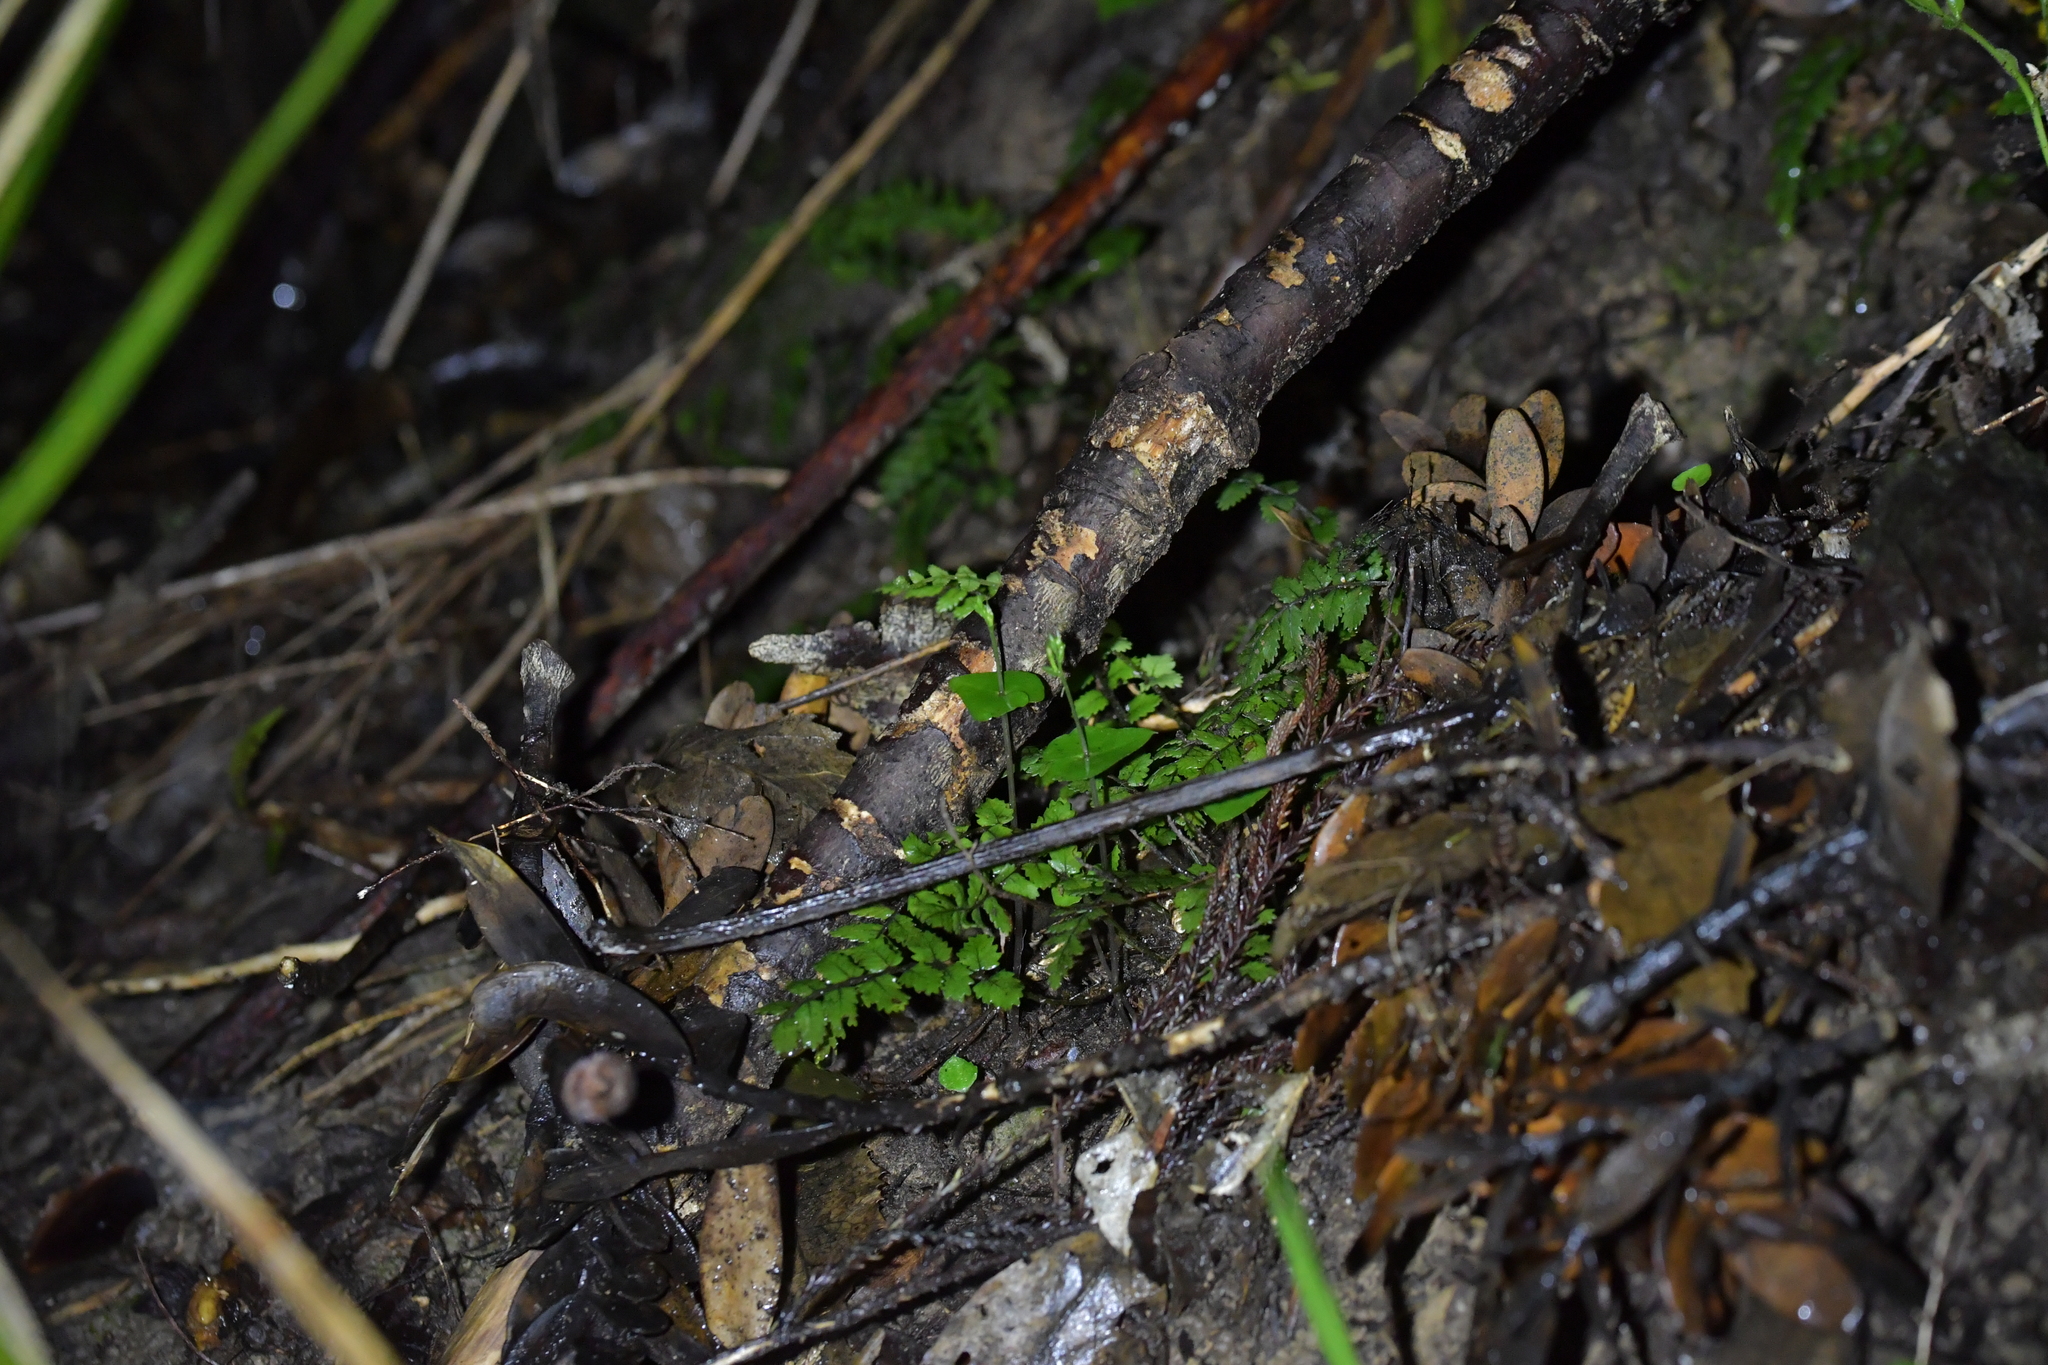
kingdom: Plantae
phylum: Tracheophyta
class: Liliopsida
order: Asparagales
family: Orchidaceae
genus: Acianthus
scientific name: Acianthus sinclairii
